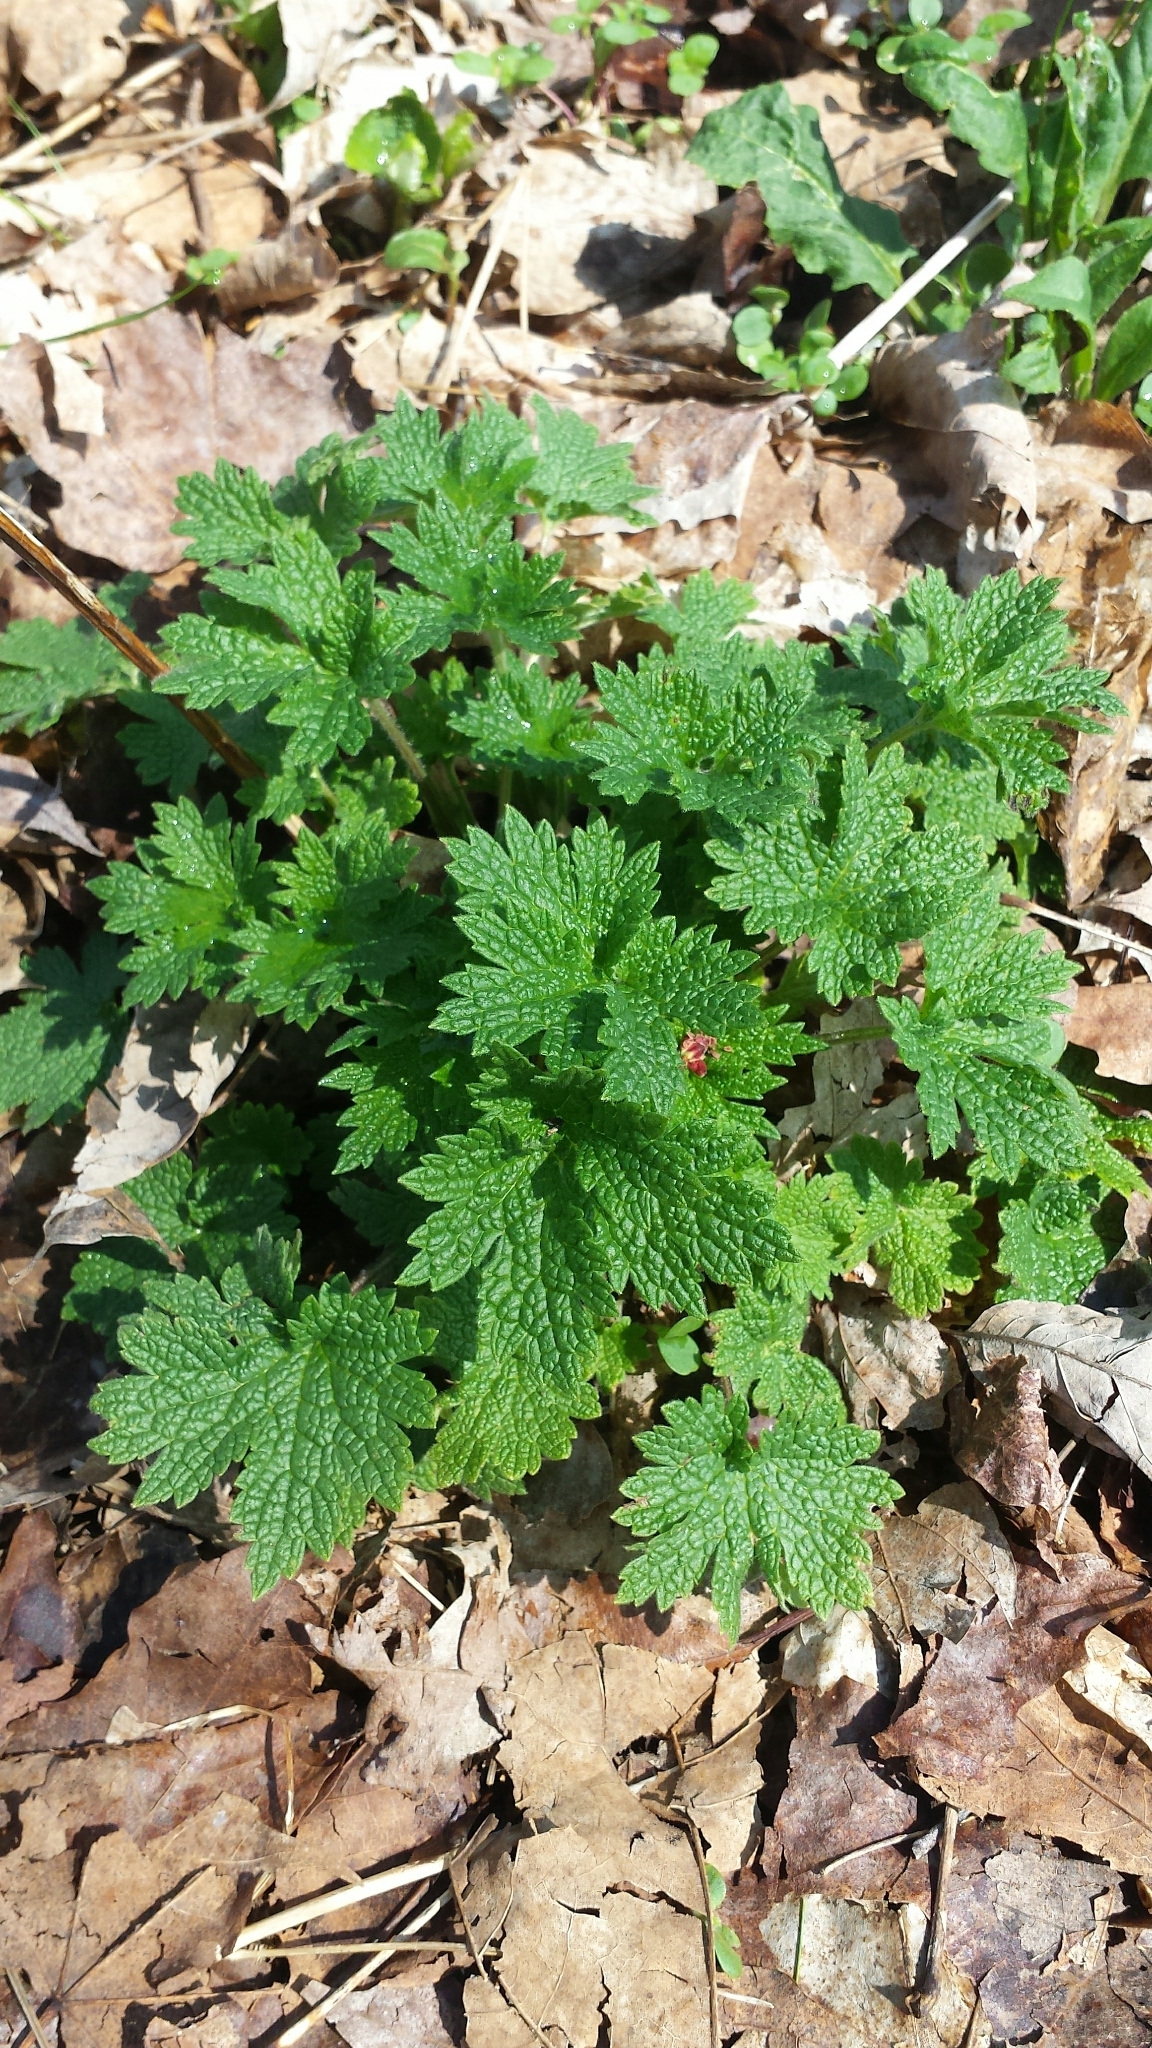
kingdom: Plantae
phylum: Tracheophyta
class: Magnoliopsida
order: Lamiales
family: Lamiaceae
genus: Leonurus
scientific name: Leonurus cardiaca
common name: Motherwort
